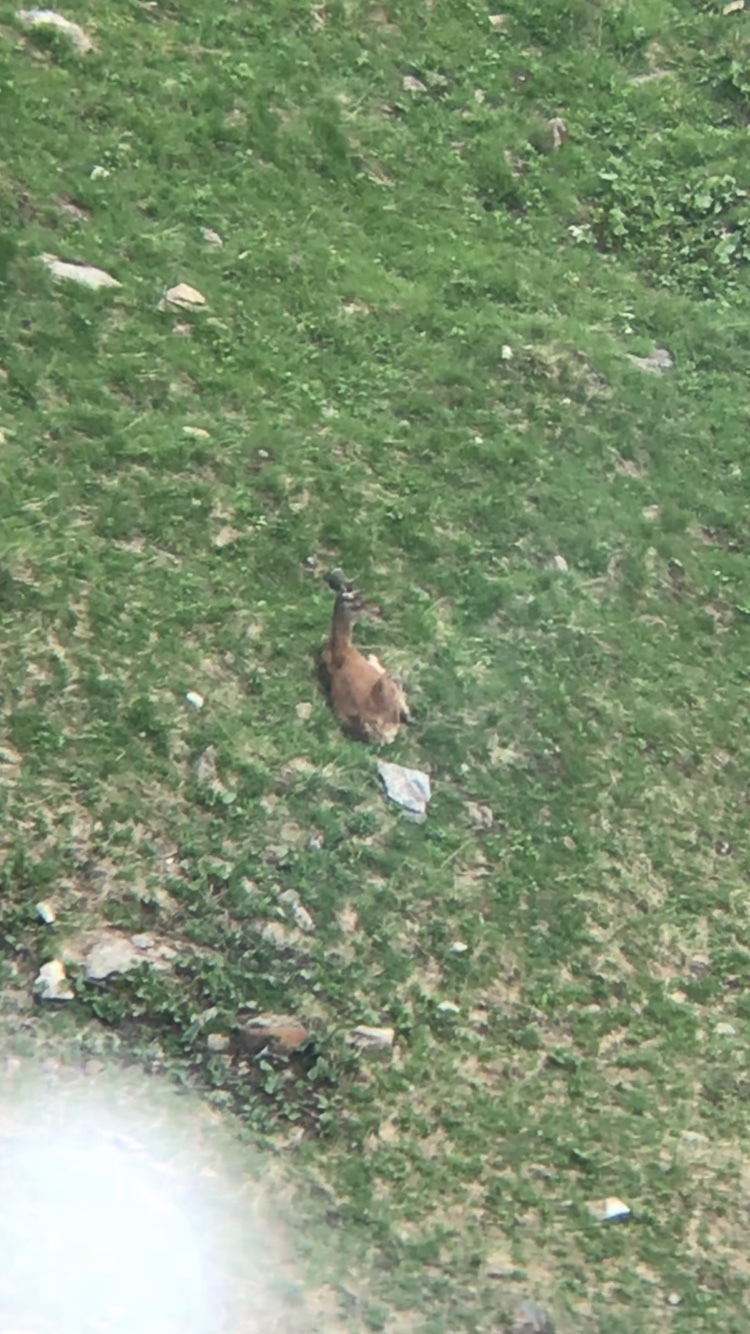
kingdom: Animalia
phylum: Chordata
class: Mammalia
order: Artiodactyla
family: Cervidae
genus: Cervus
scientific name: Cervus elaphus
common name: Red deer
